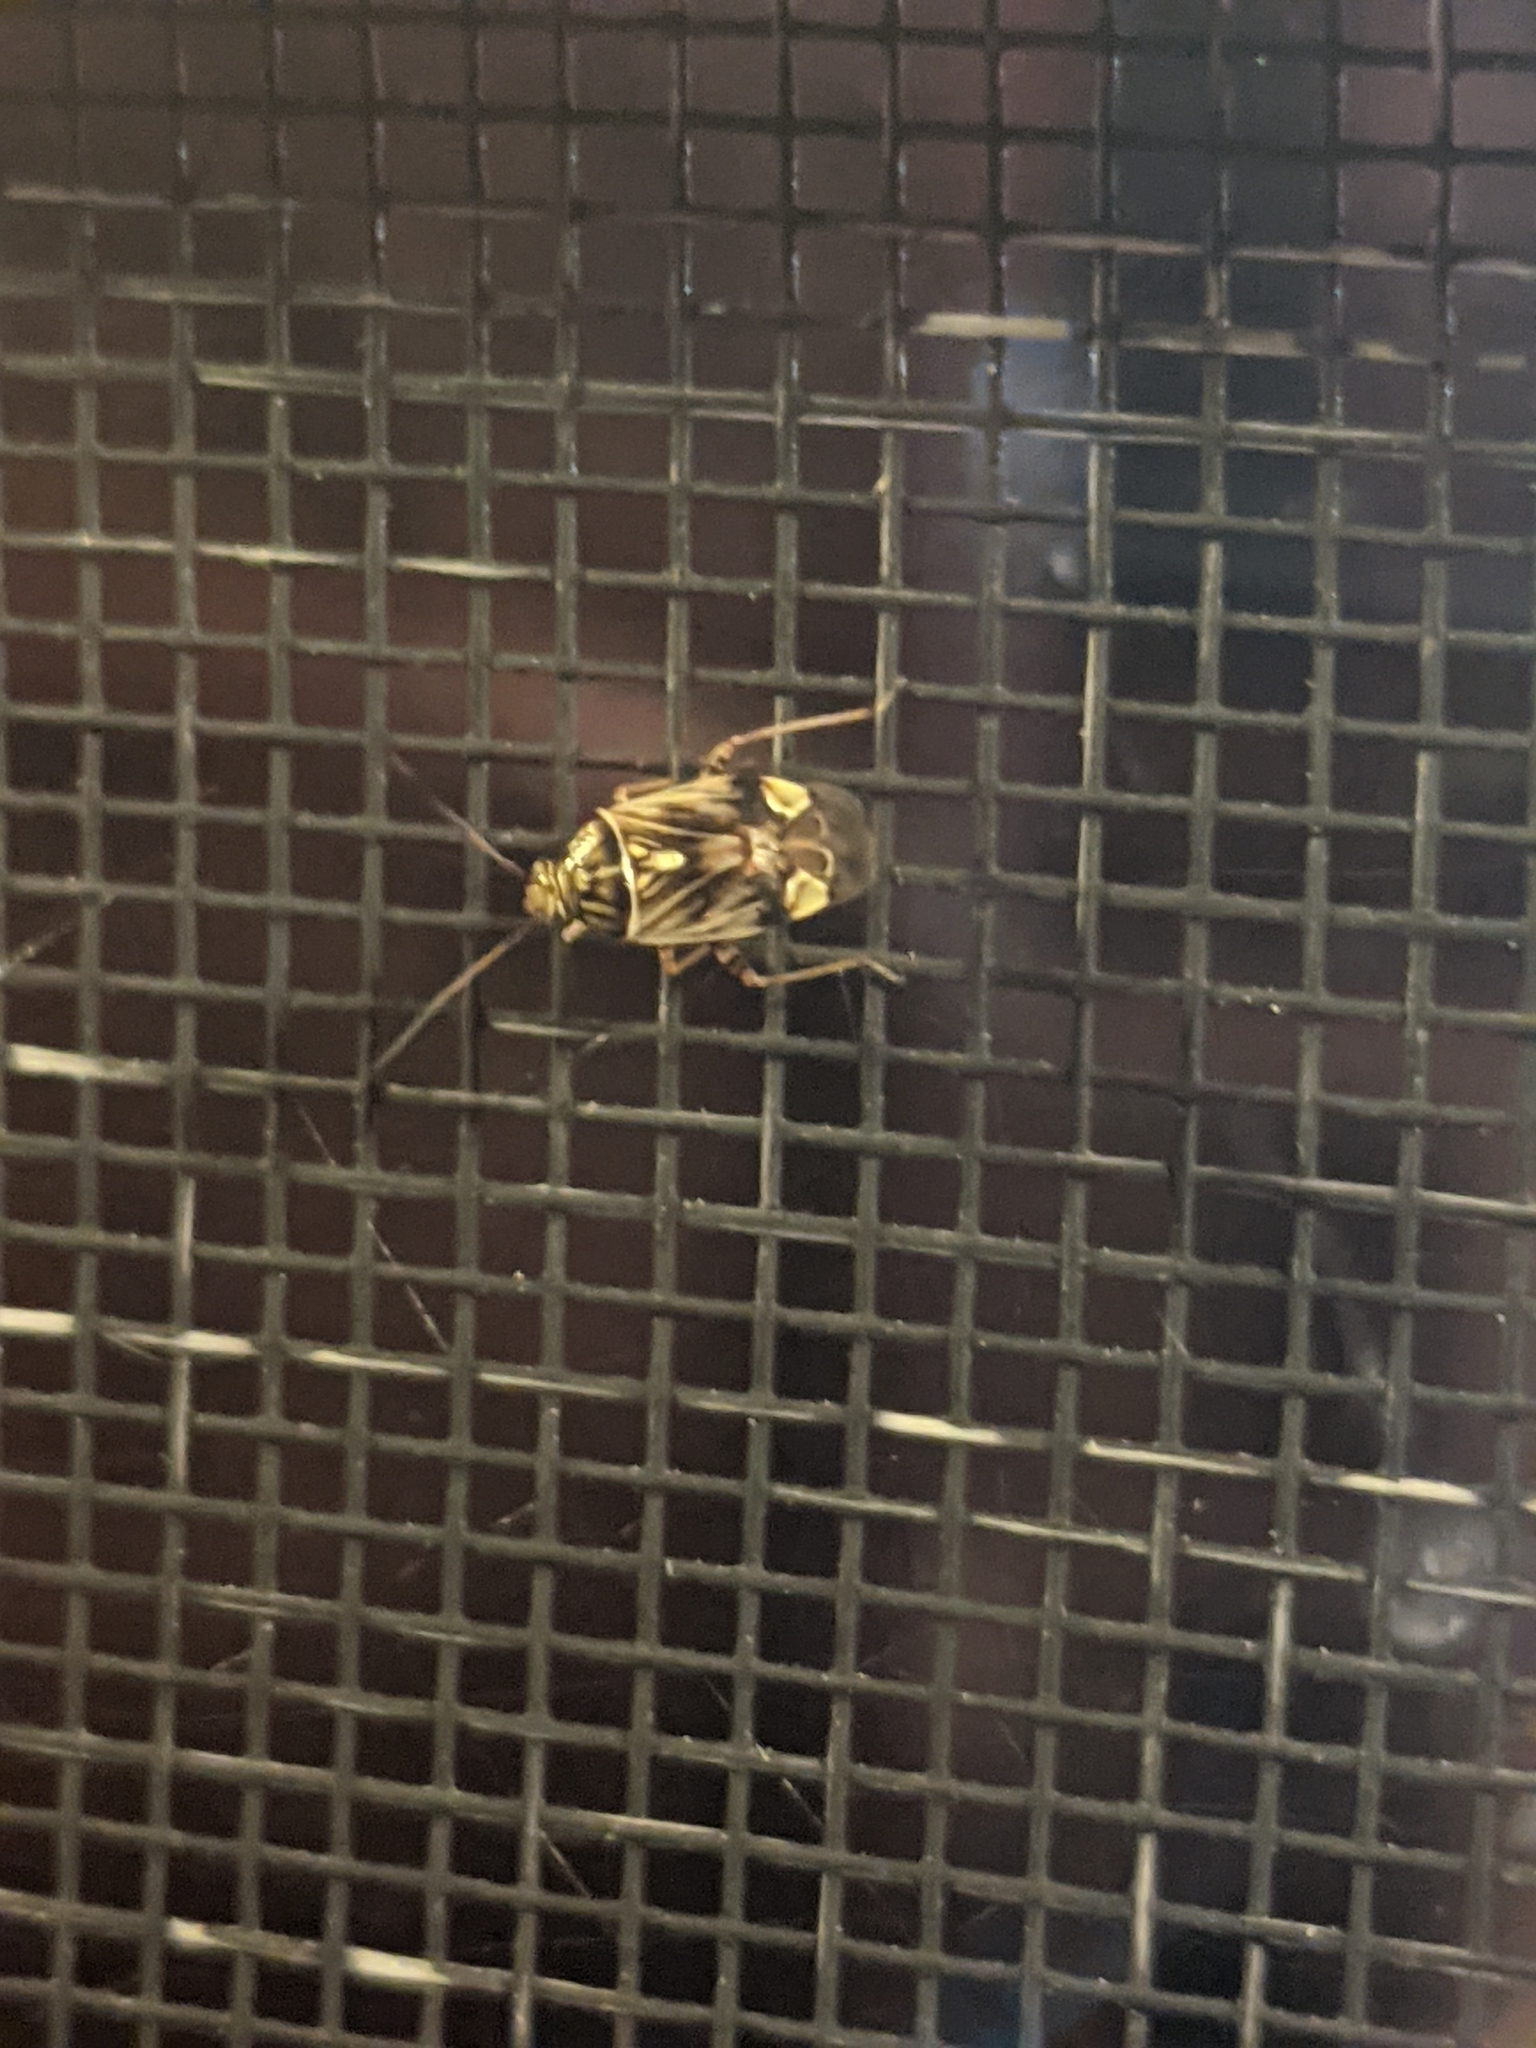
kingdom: Animalia
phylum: Arthropoda
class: Insecta
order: Hemiptera
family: Miridae
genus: Lygus
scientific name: Lygus lineolaris
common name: North american tarnished plant bug
